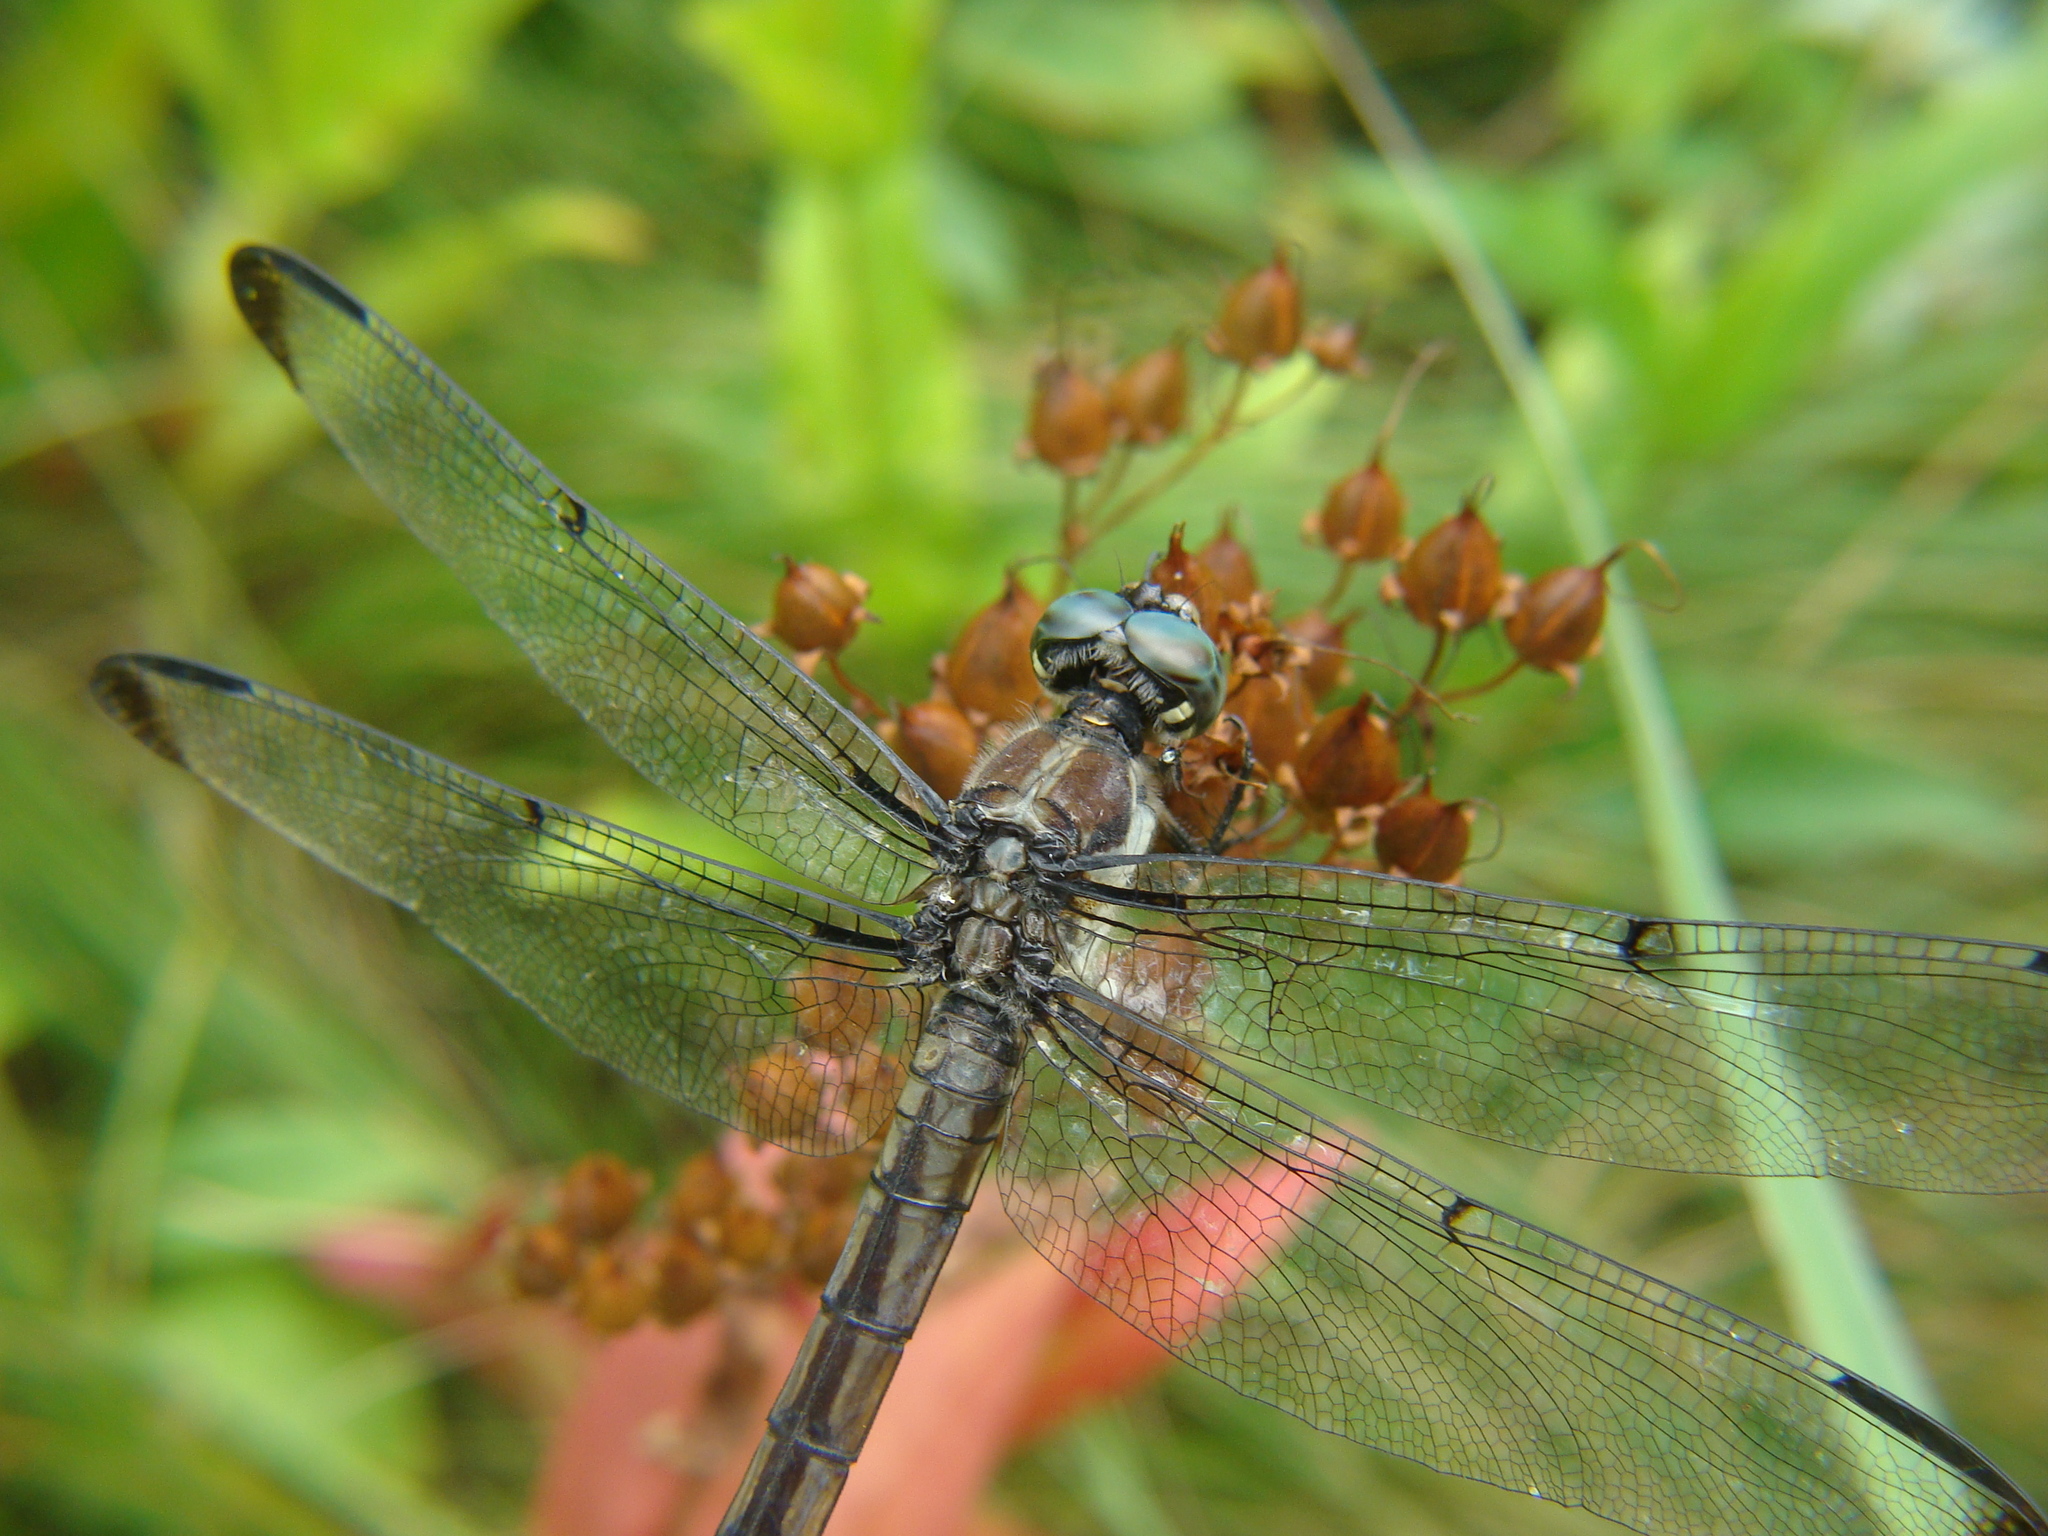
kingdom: Animalia
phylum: Arthropoda
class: Insecta
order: Odonata
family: Libellulidae
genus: Libellula
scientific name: Libellula vibrans
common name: Great blue skimmer
